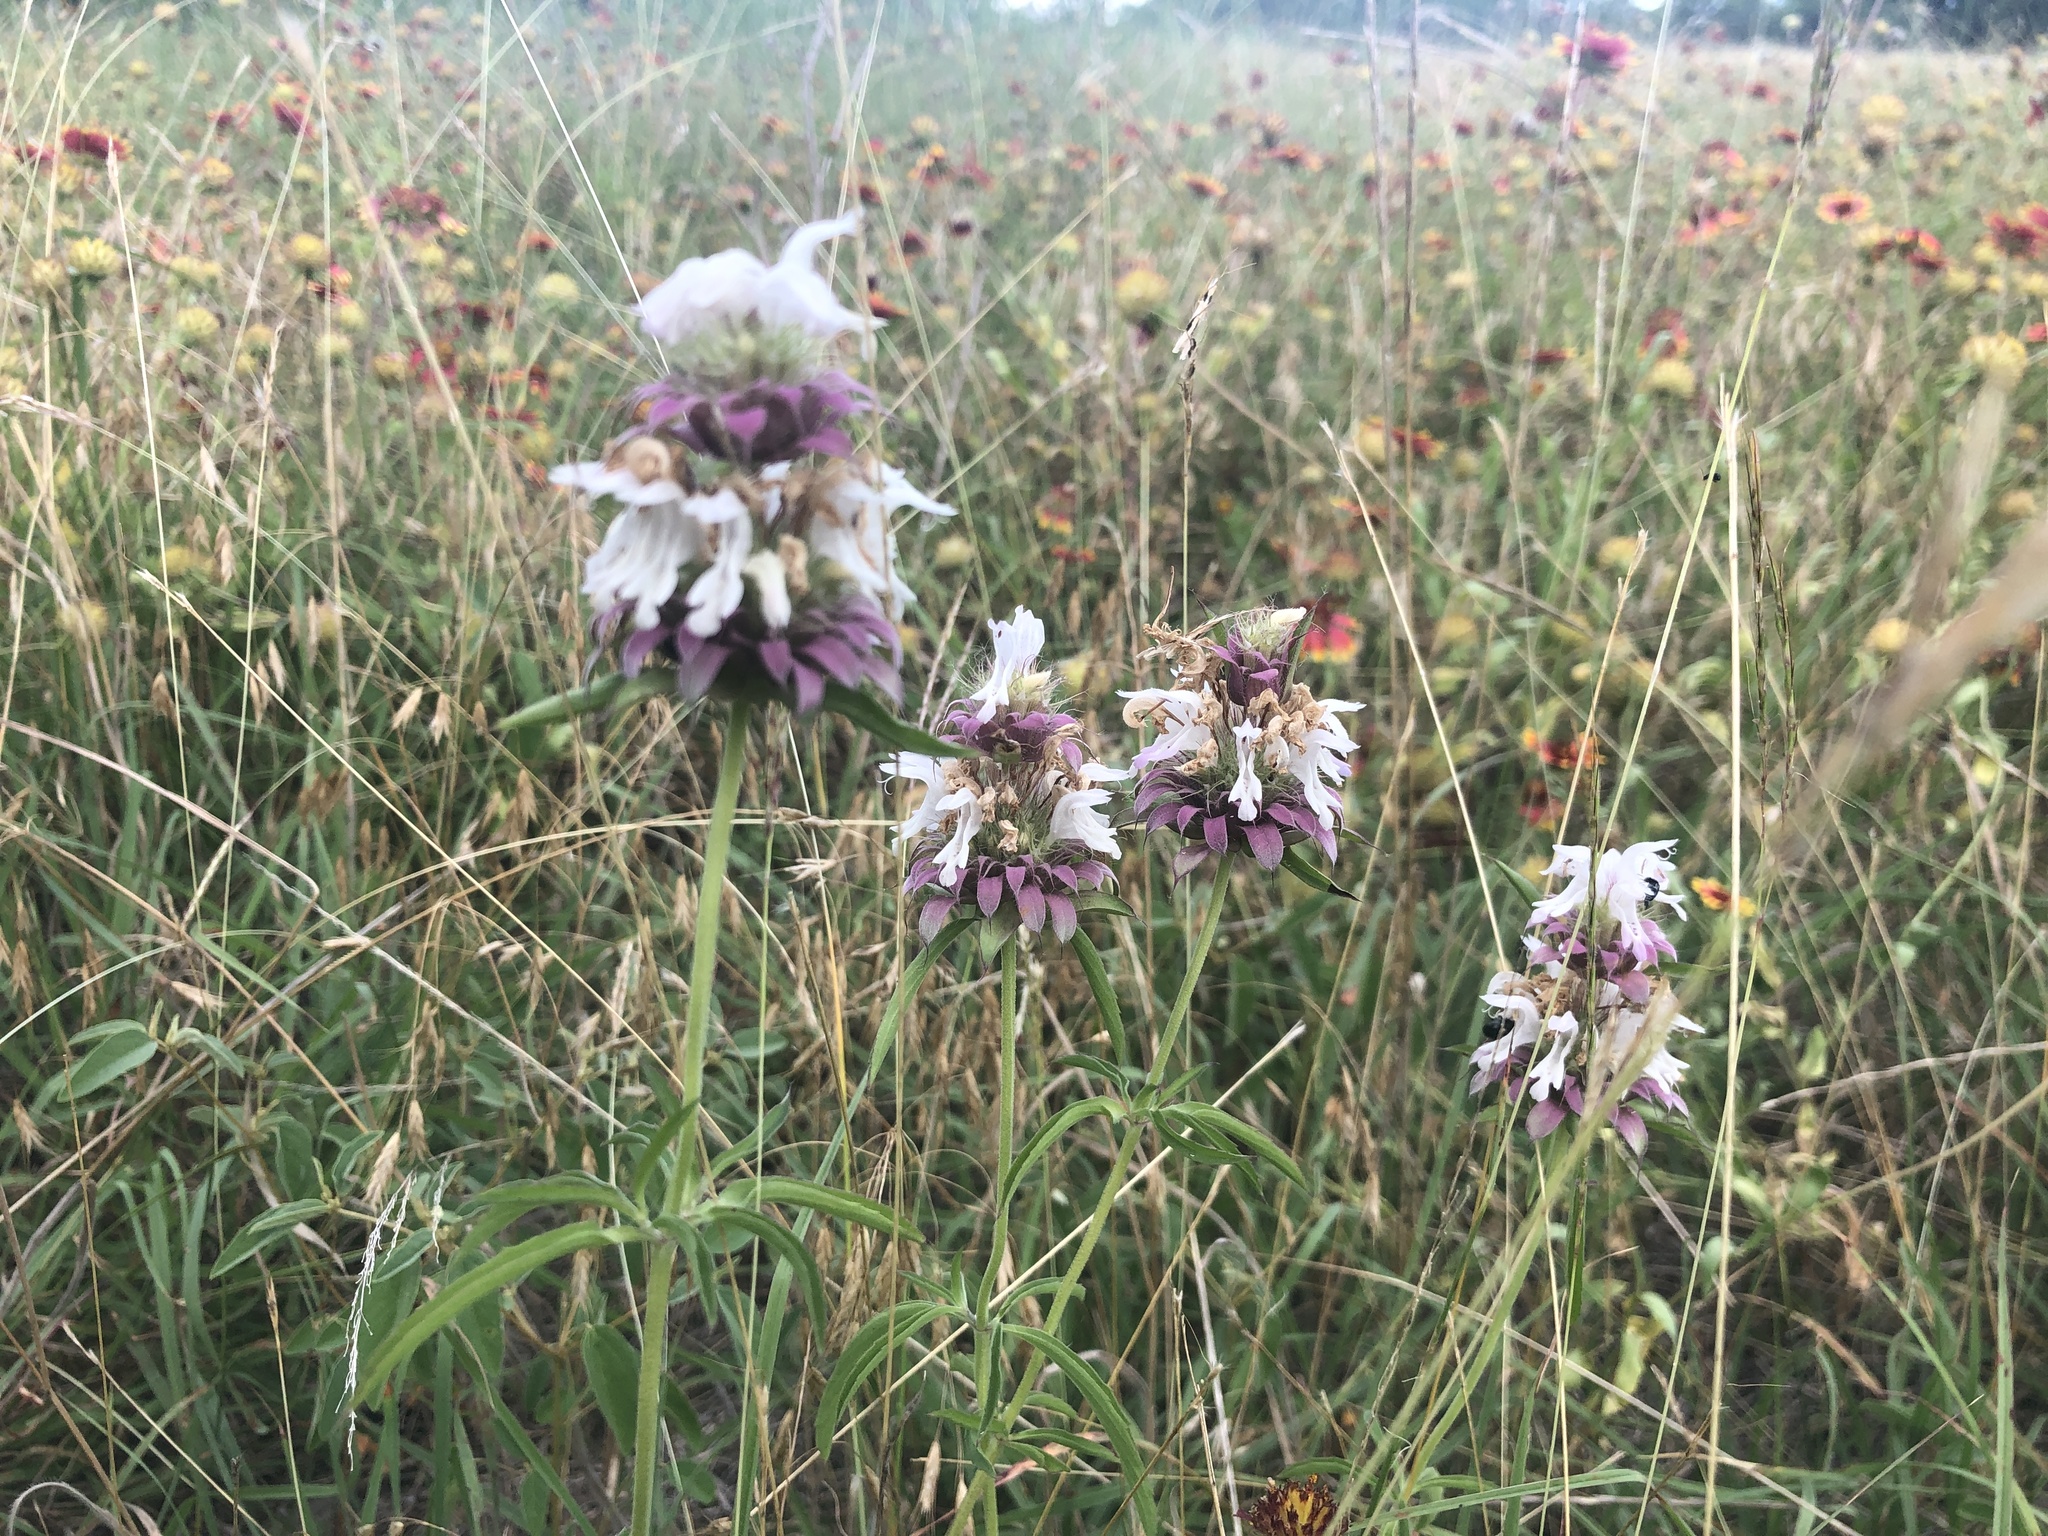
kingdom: Plantae
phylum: Tracheophyta
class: Magnoliopsida
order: Lamiales
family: Lamiaceae
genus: Monarda
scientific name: Monarda citriodora
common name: Lemon beebalm
